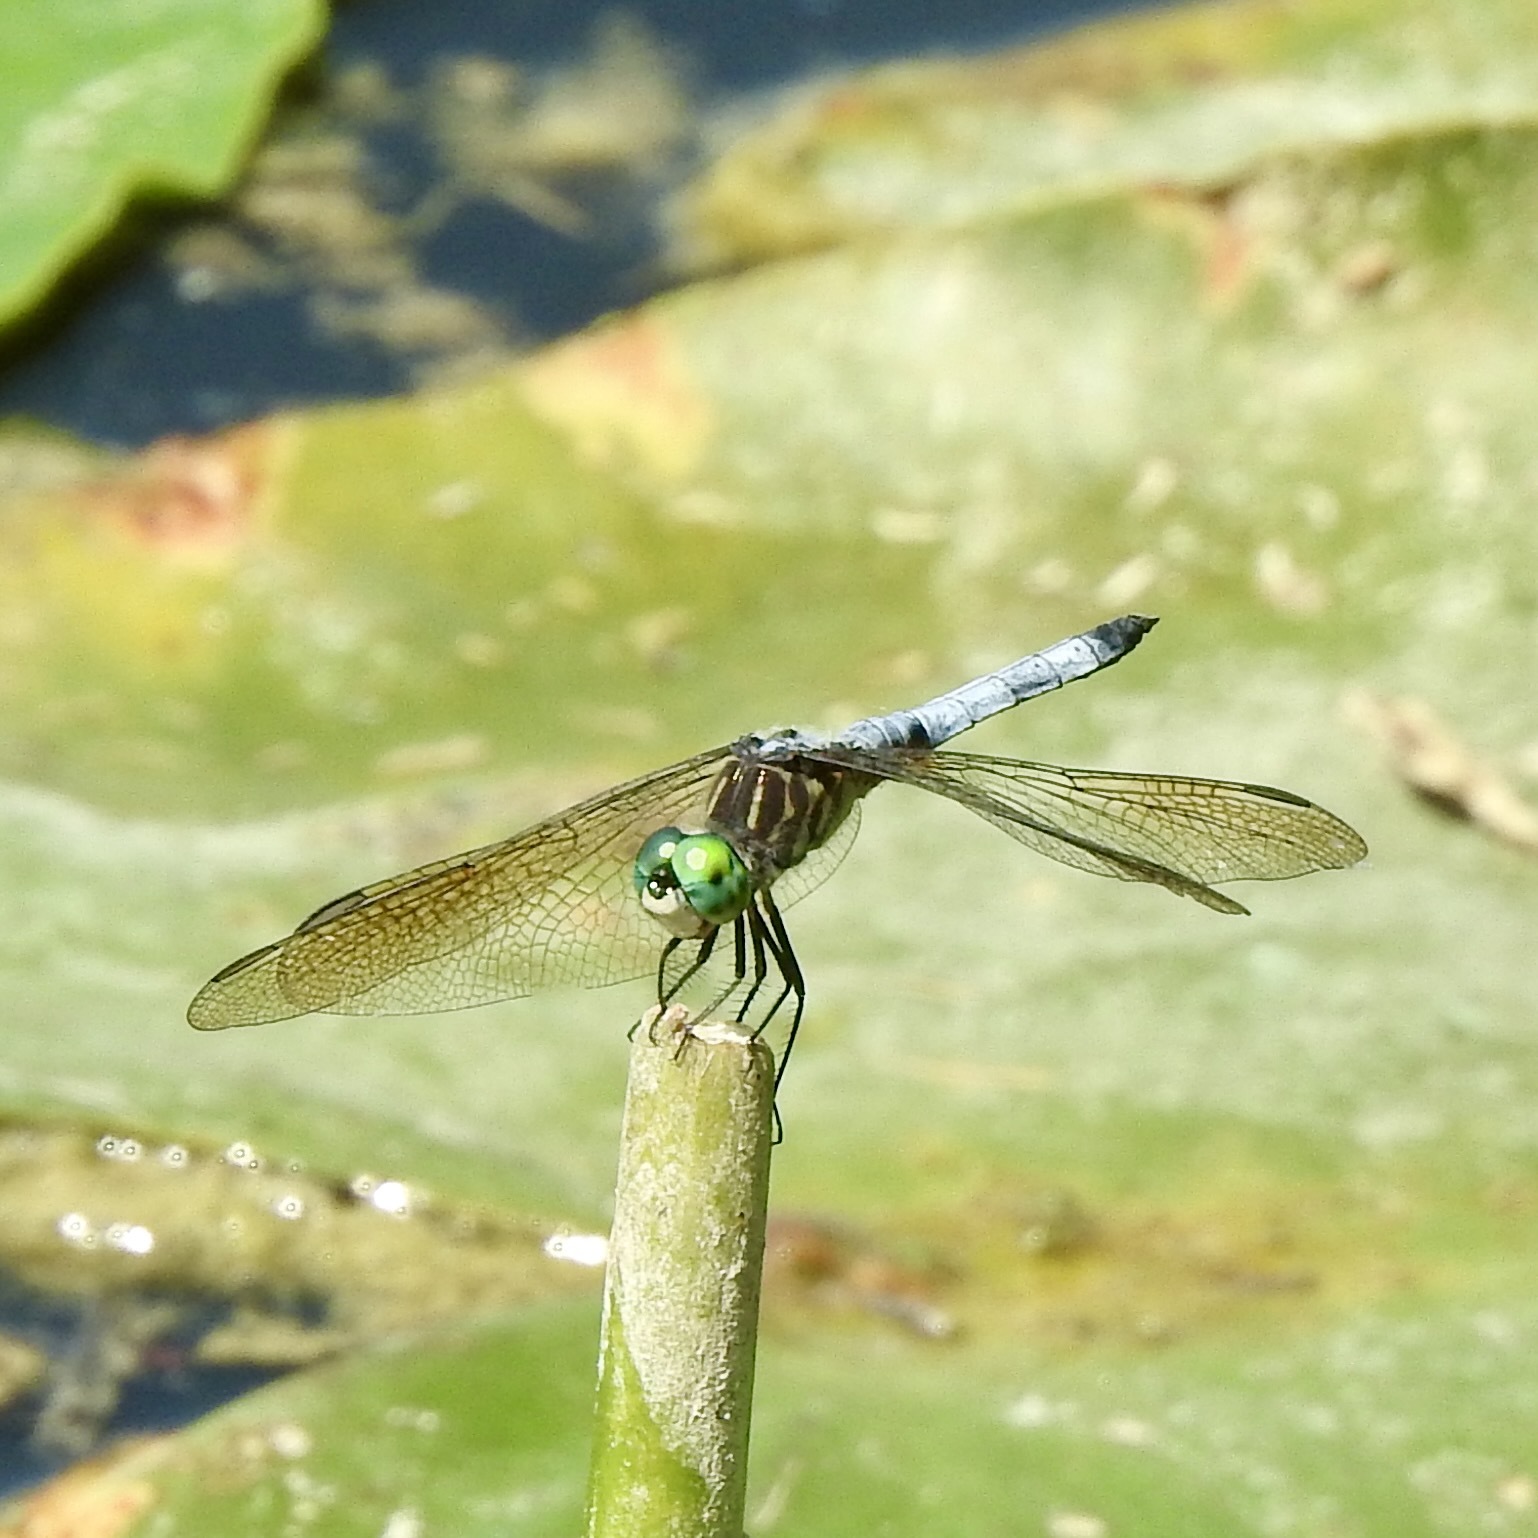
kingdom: Animalia
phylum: Arthropoda
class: Insecta
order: Odonata
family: Libellulidae
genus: Pachydiplax
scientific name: Pachydiplax longipennis
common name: Blue dasher
